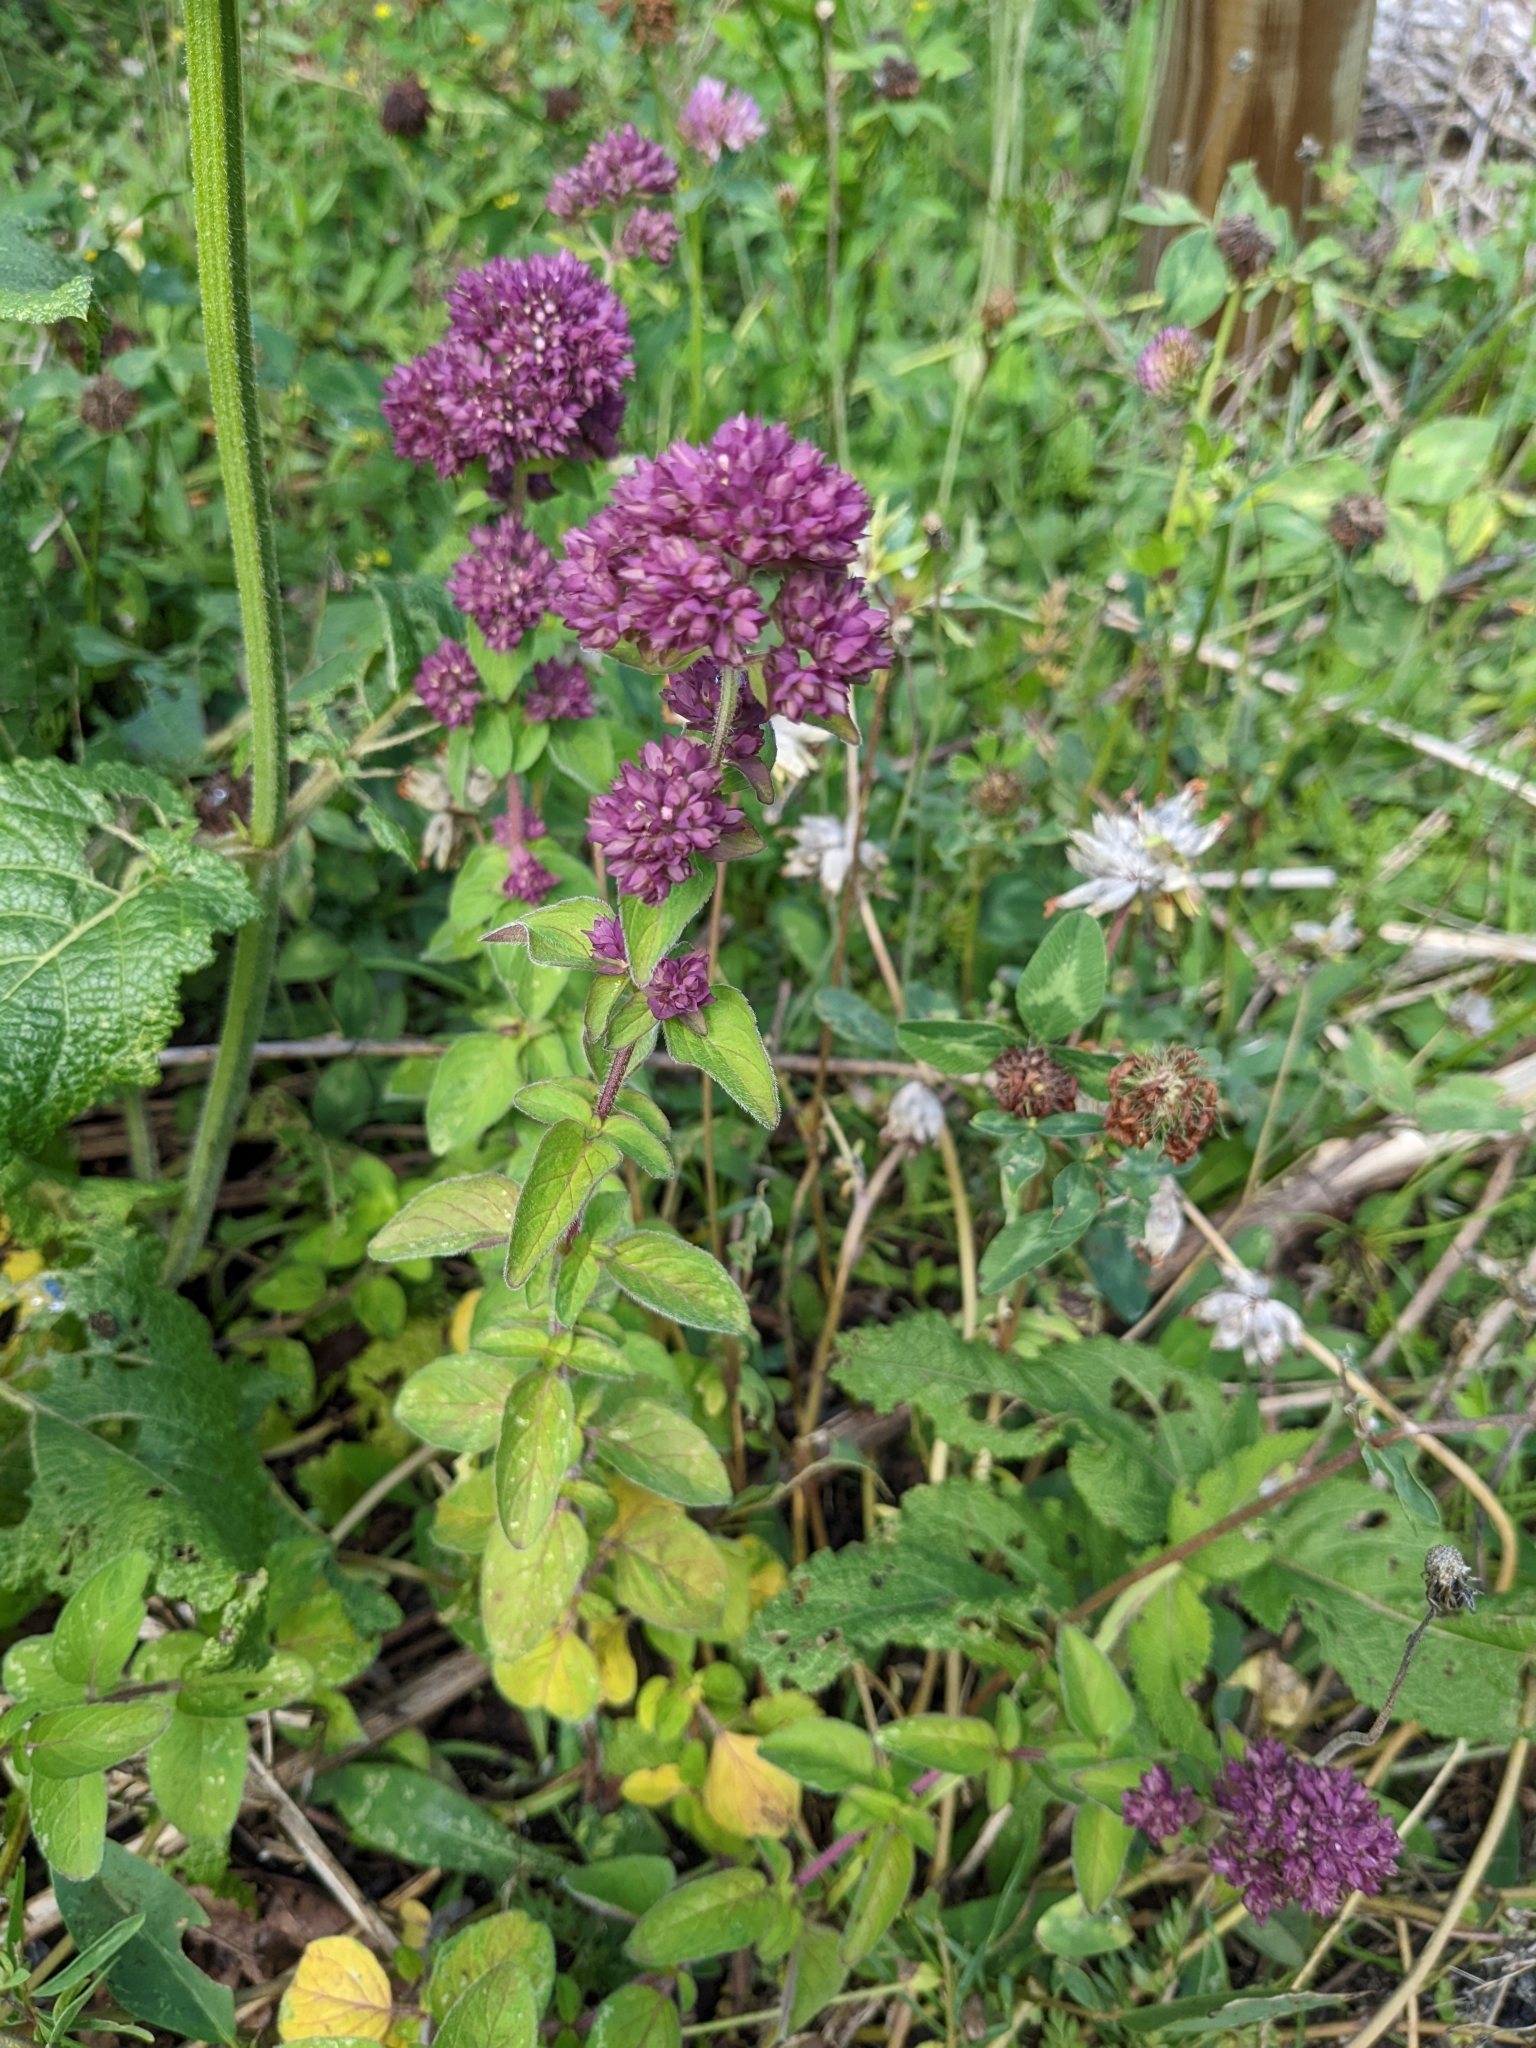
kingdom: Plantae
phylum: Tracheophyta
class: Magnoliopsida
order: Lamiales
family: Lamiaceae
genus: Origanum
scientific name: Origanum vulgare
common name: Wild marjoram
